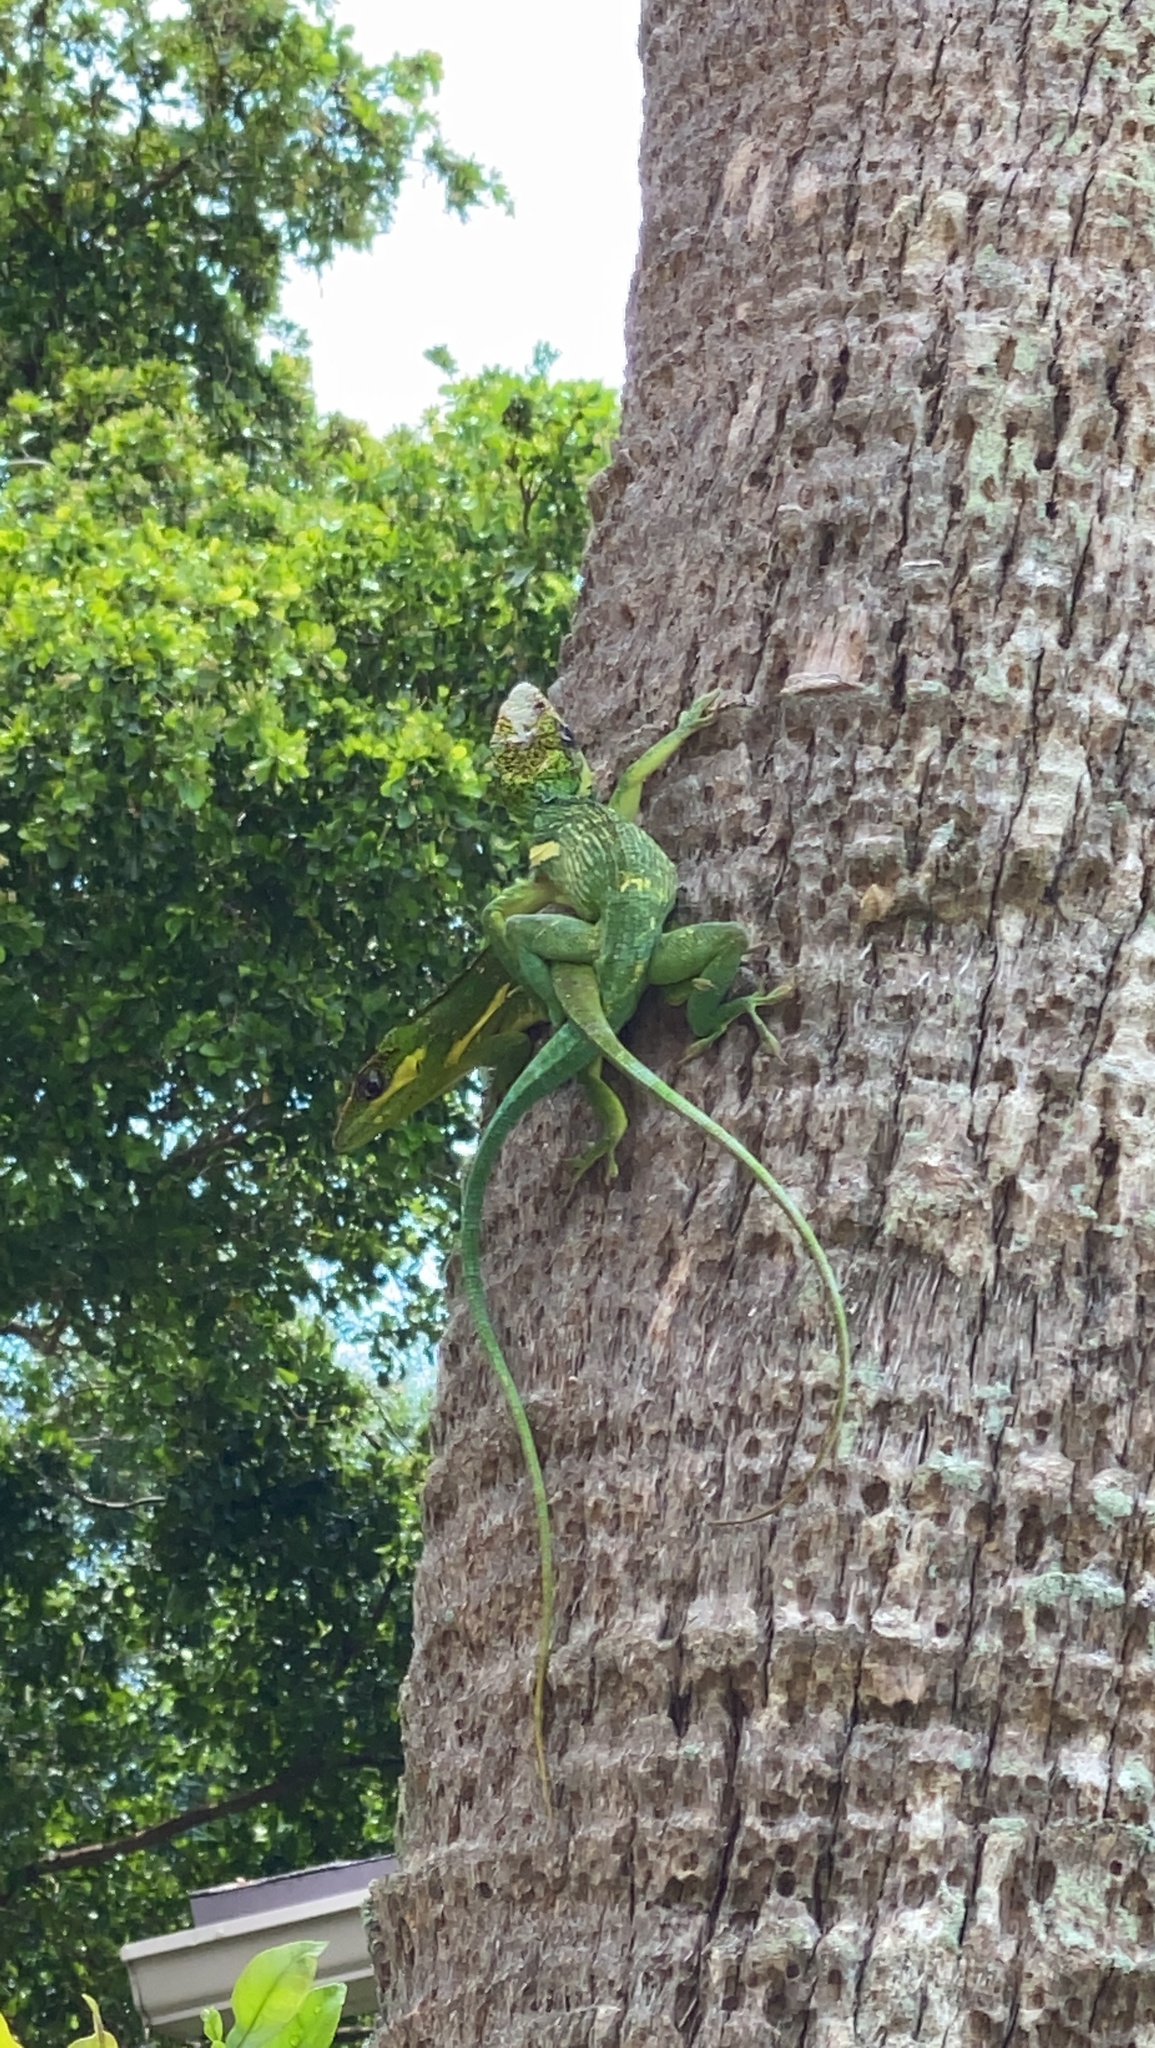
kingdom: Animalia
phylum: Chordata
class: Squamata
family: Dactyloidae
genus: Anolis
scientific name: Anolis equestris
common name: Knight anole
